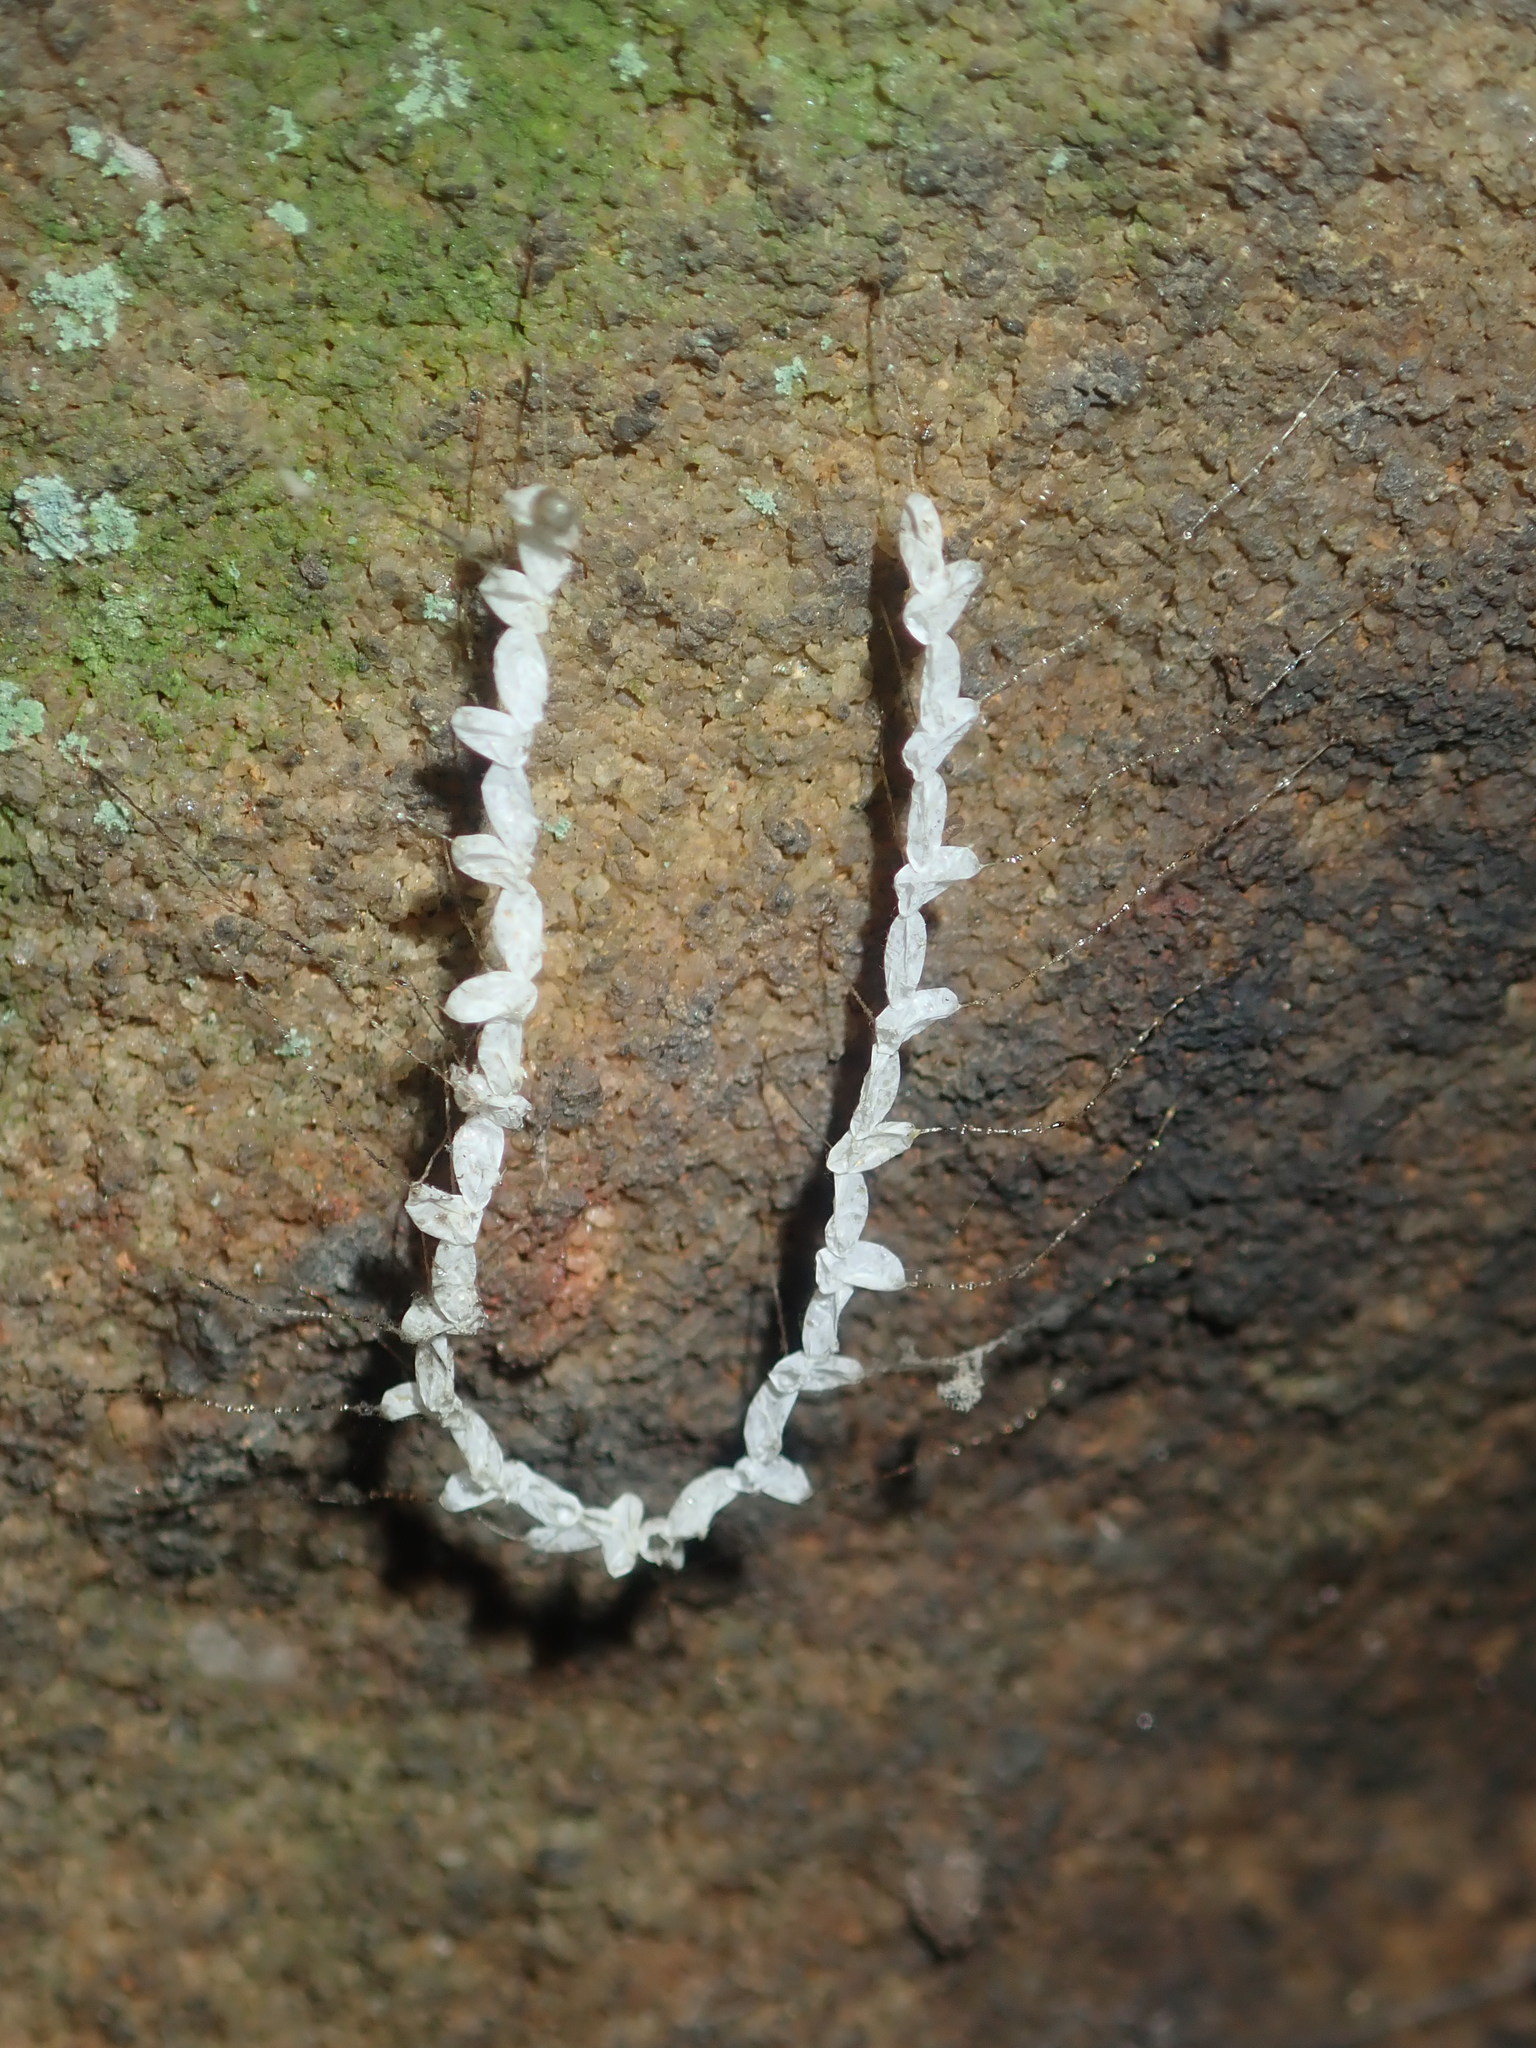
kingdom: Animalia
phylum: Arthropoda
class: Insecta
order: Neuroptera
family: Nymphidae
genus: Nymphes
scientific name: Nymphes myrmeleonoides
